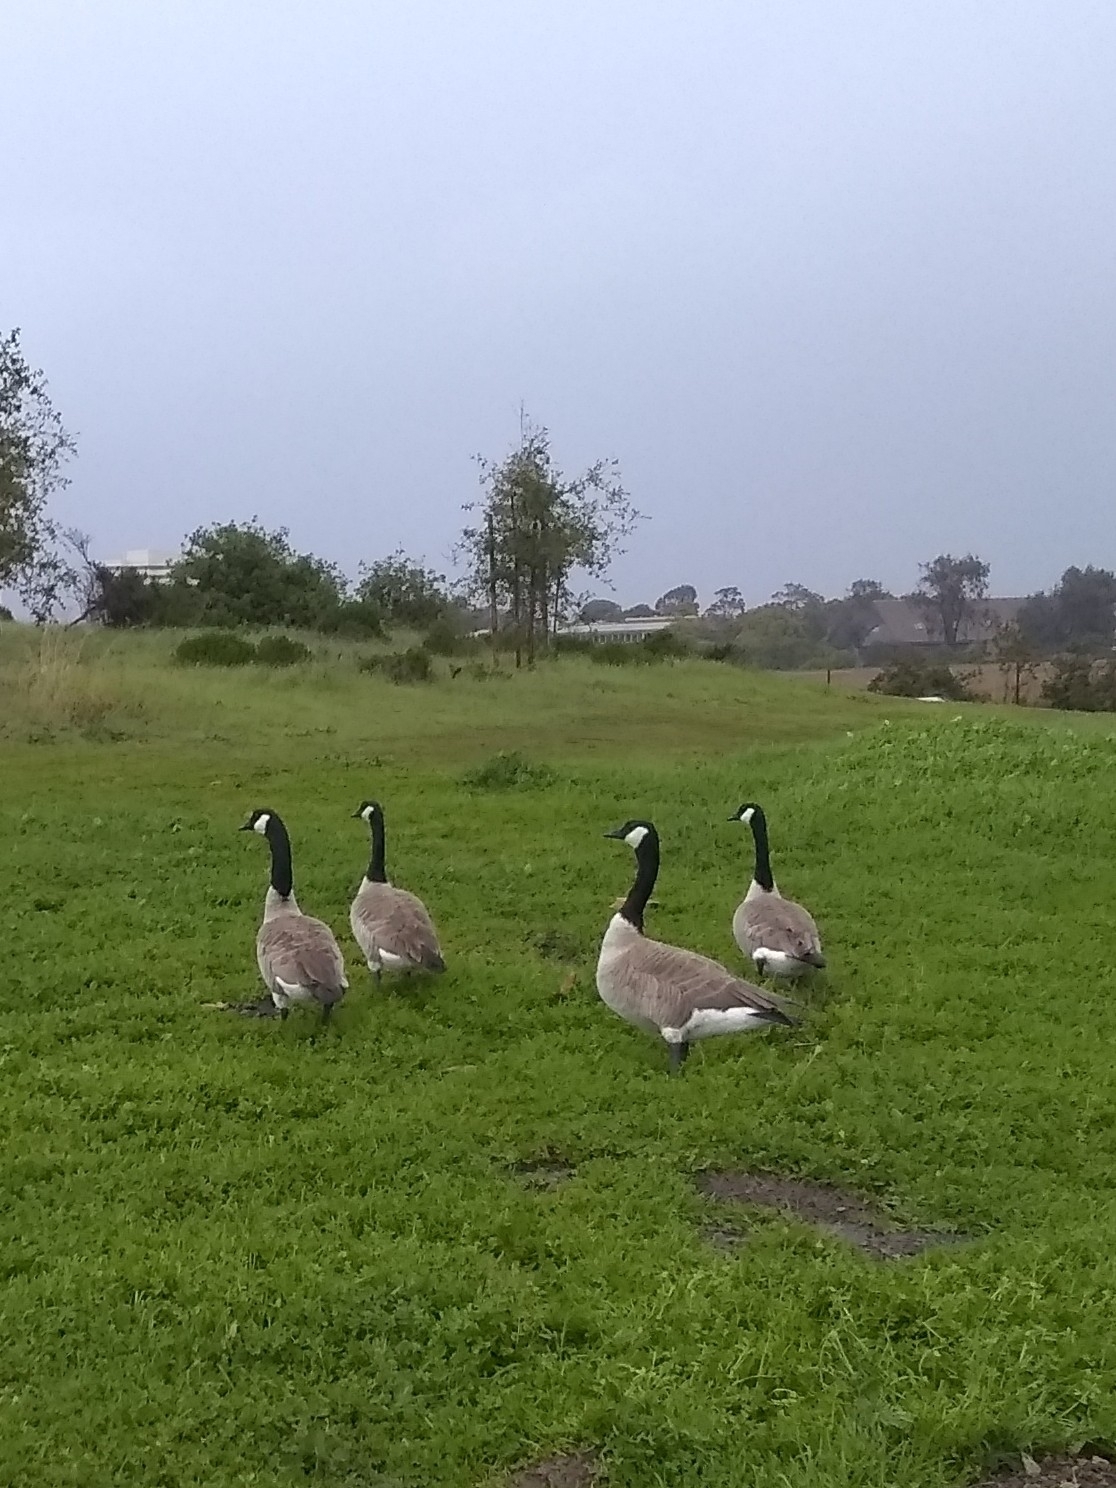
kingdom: Animalia
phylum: Chordata
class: Aves
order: Anseriformes
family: Anatidae
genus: Branta
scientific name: Branta canadensis
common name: Canada goose
